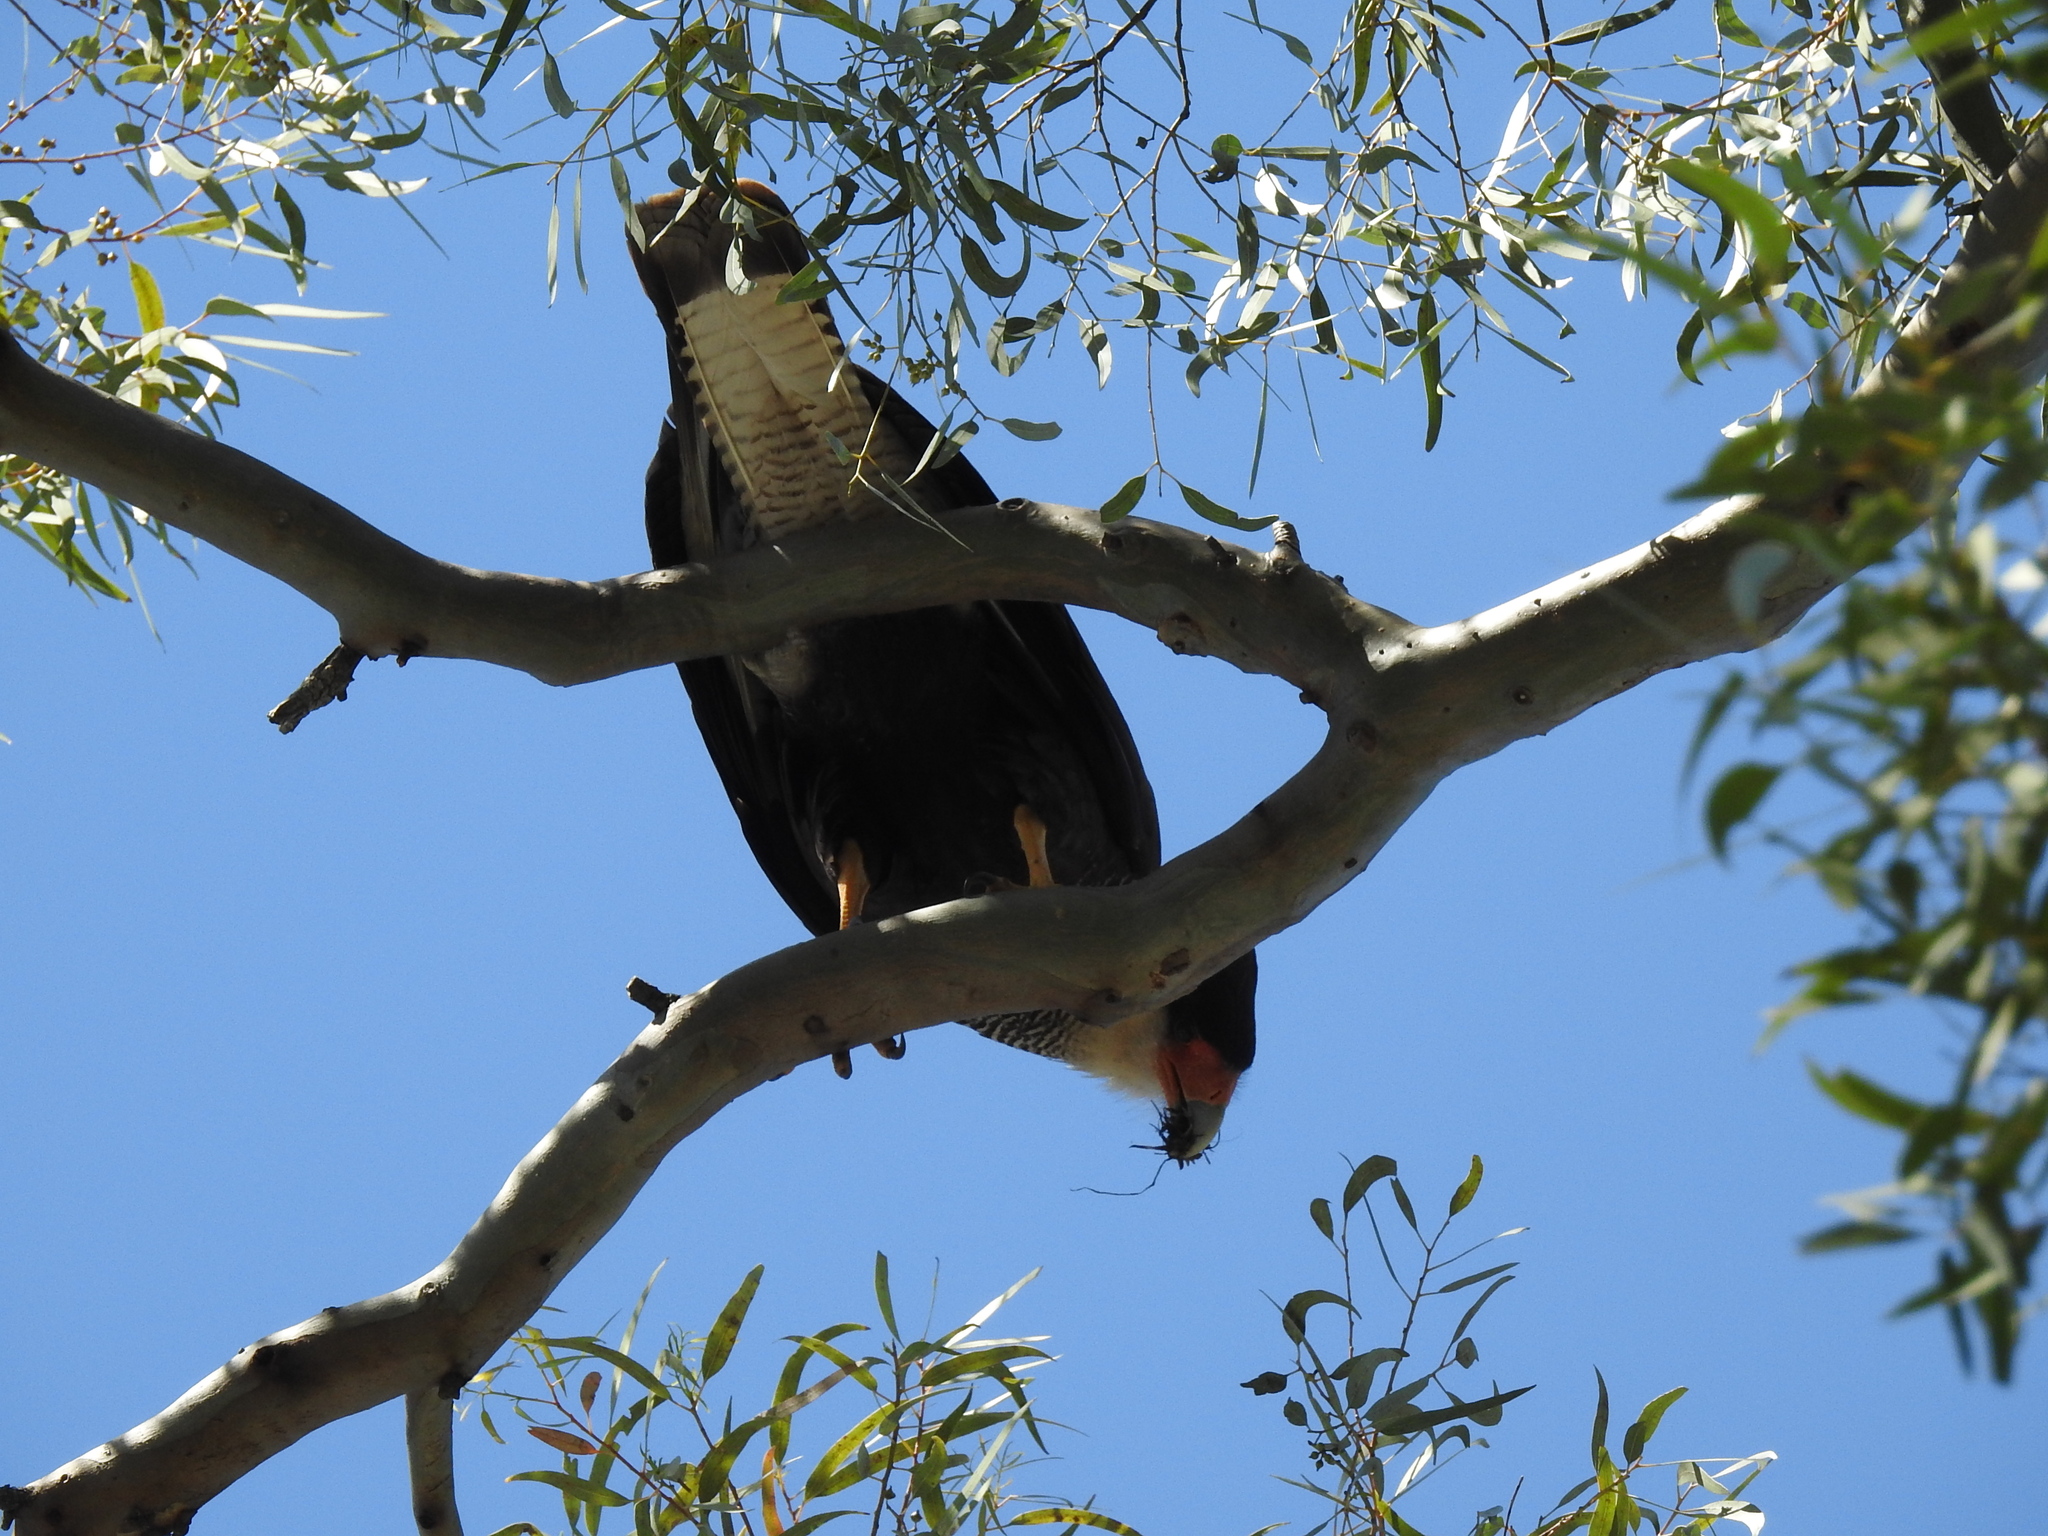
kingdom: Animalia
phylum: Chordata
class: Aves
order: Falconiformes
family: Falconidae
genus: Caracara
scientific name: Caracara plancus
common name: Southern caracara
